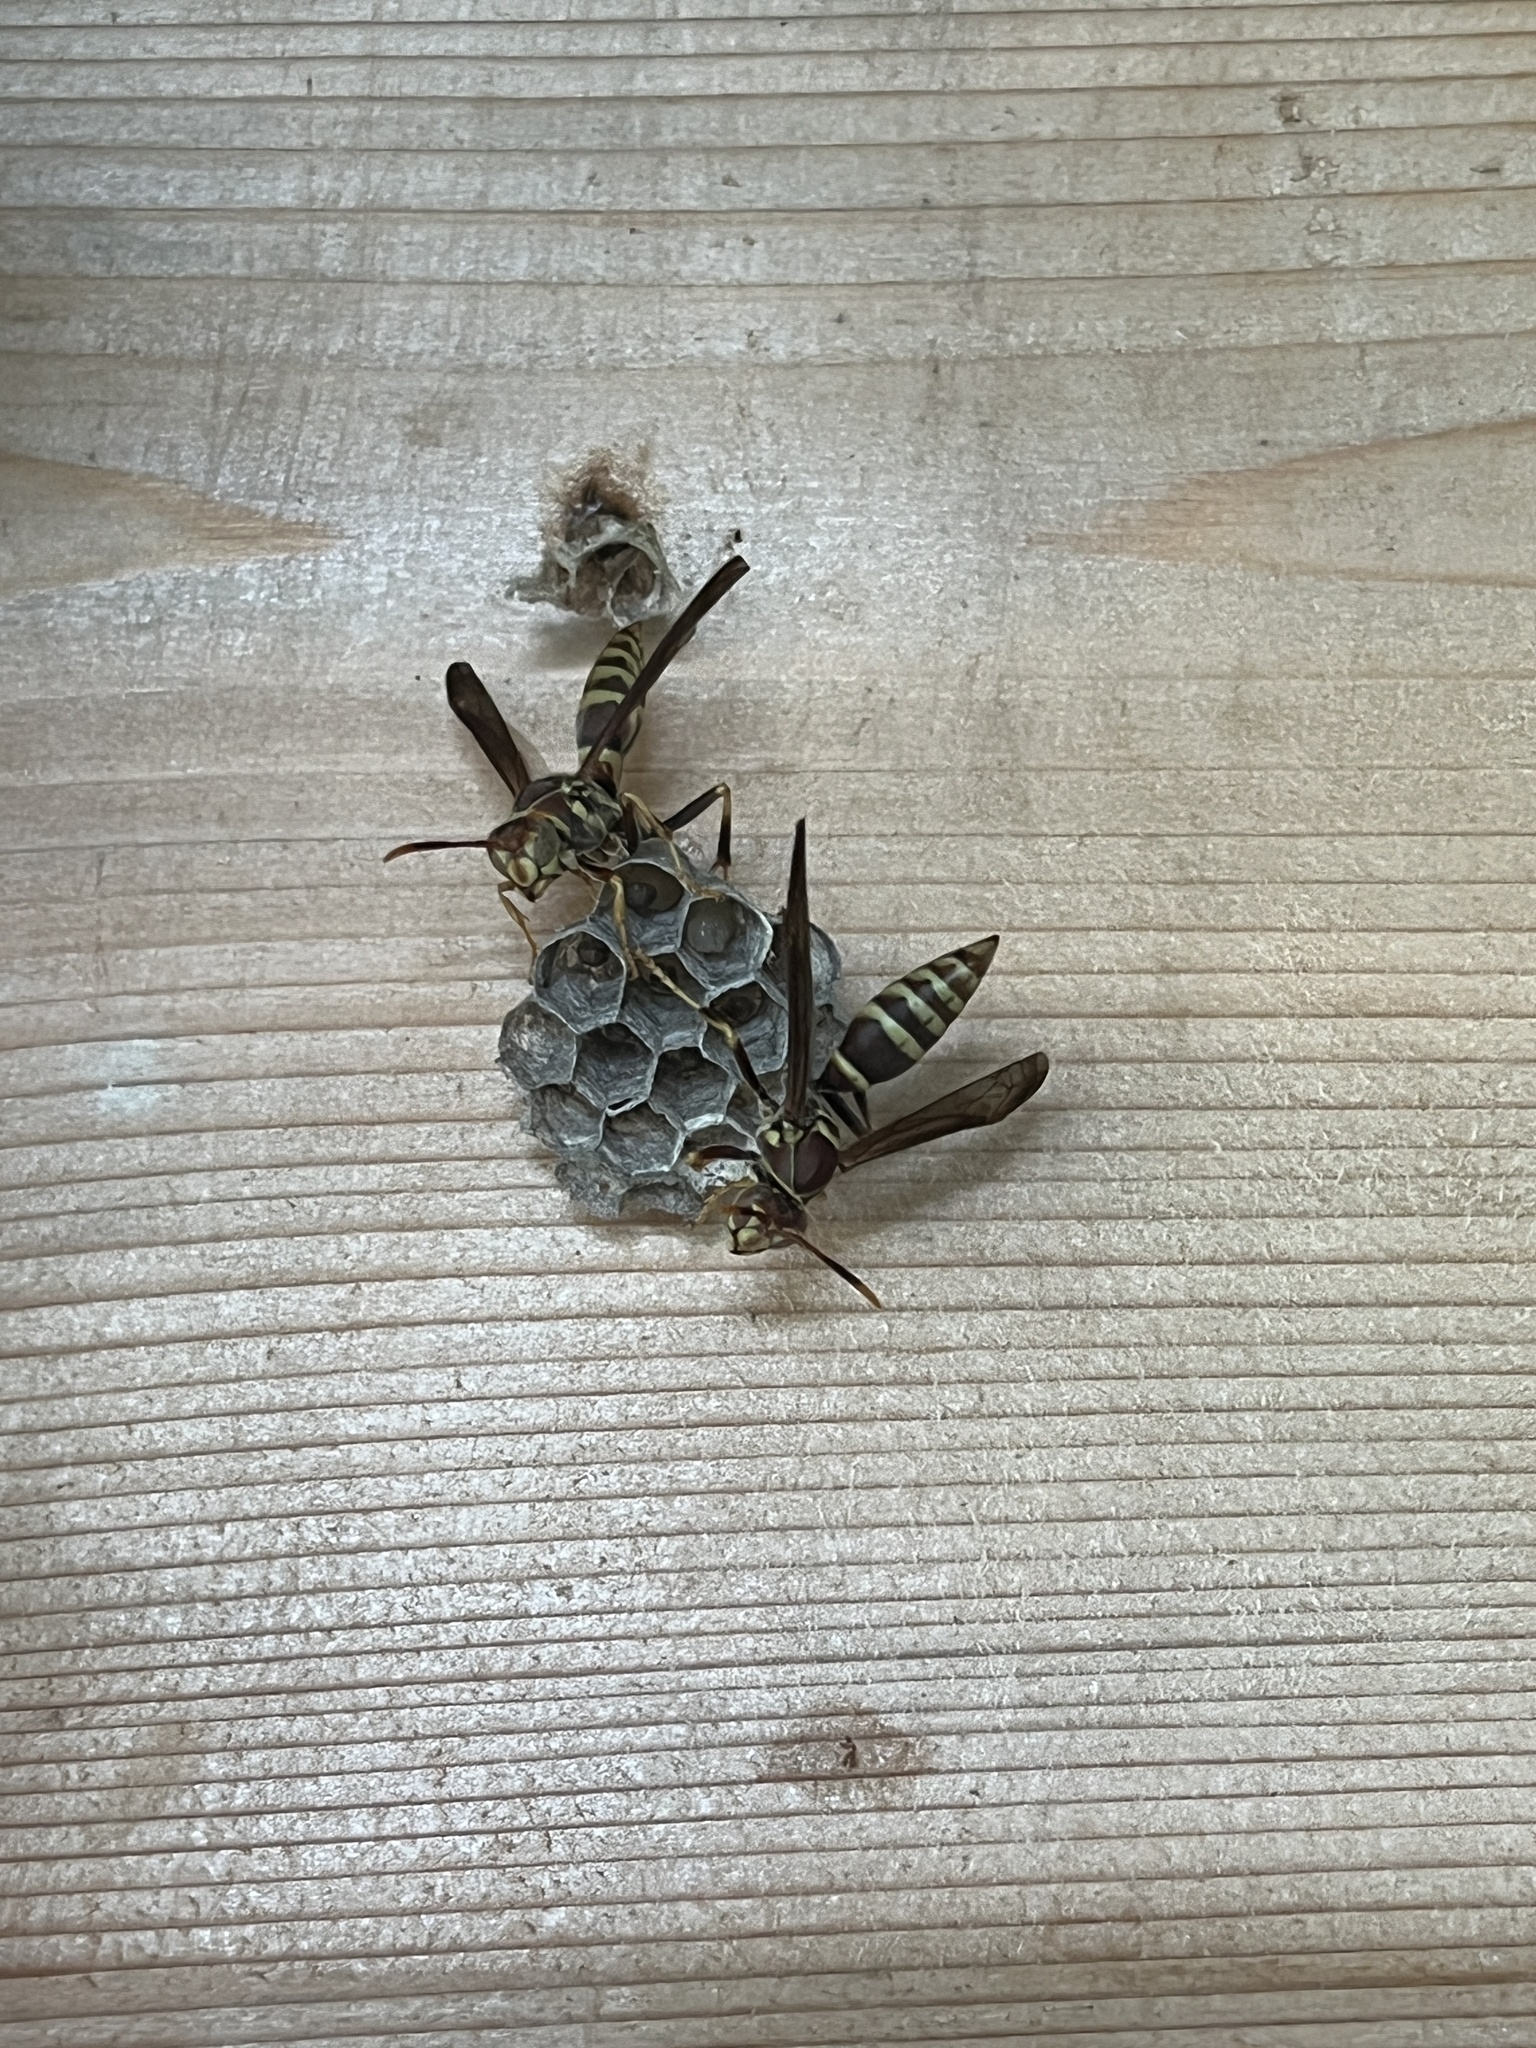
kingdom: Animalia
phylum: Arthropoda
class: Insecta
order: Hymenoptera
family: Eumenidae
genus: Polistes
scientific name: Polistes exclamans
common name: Paper wasp
